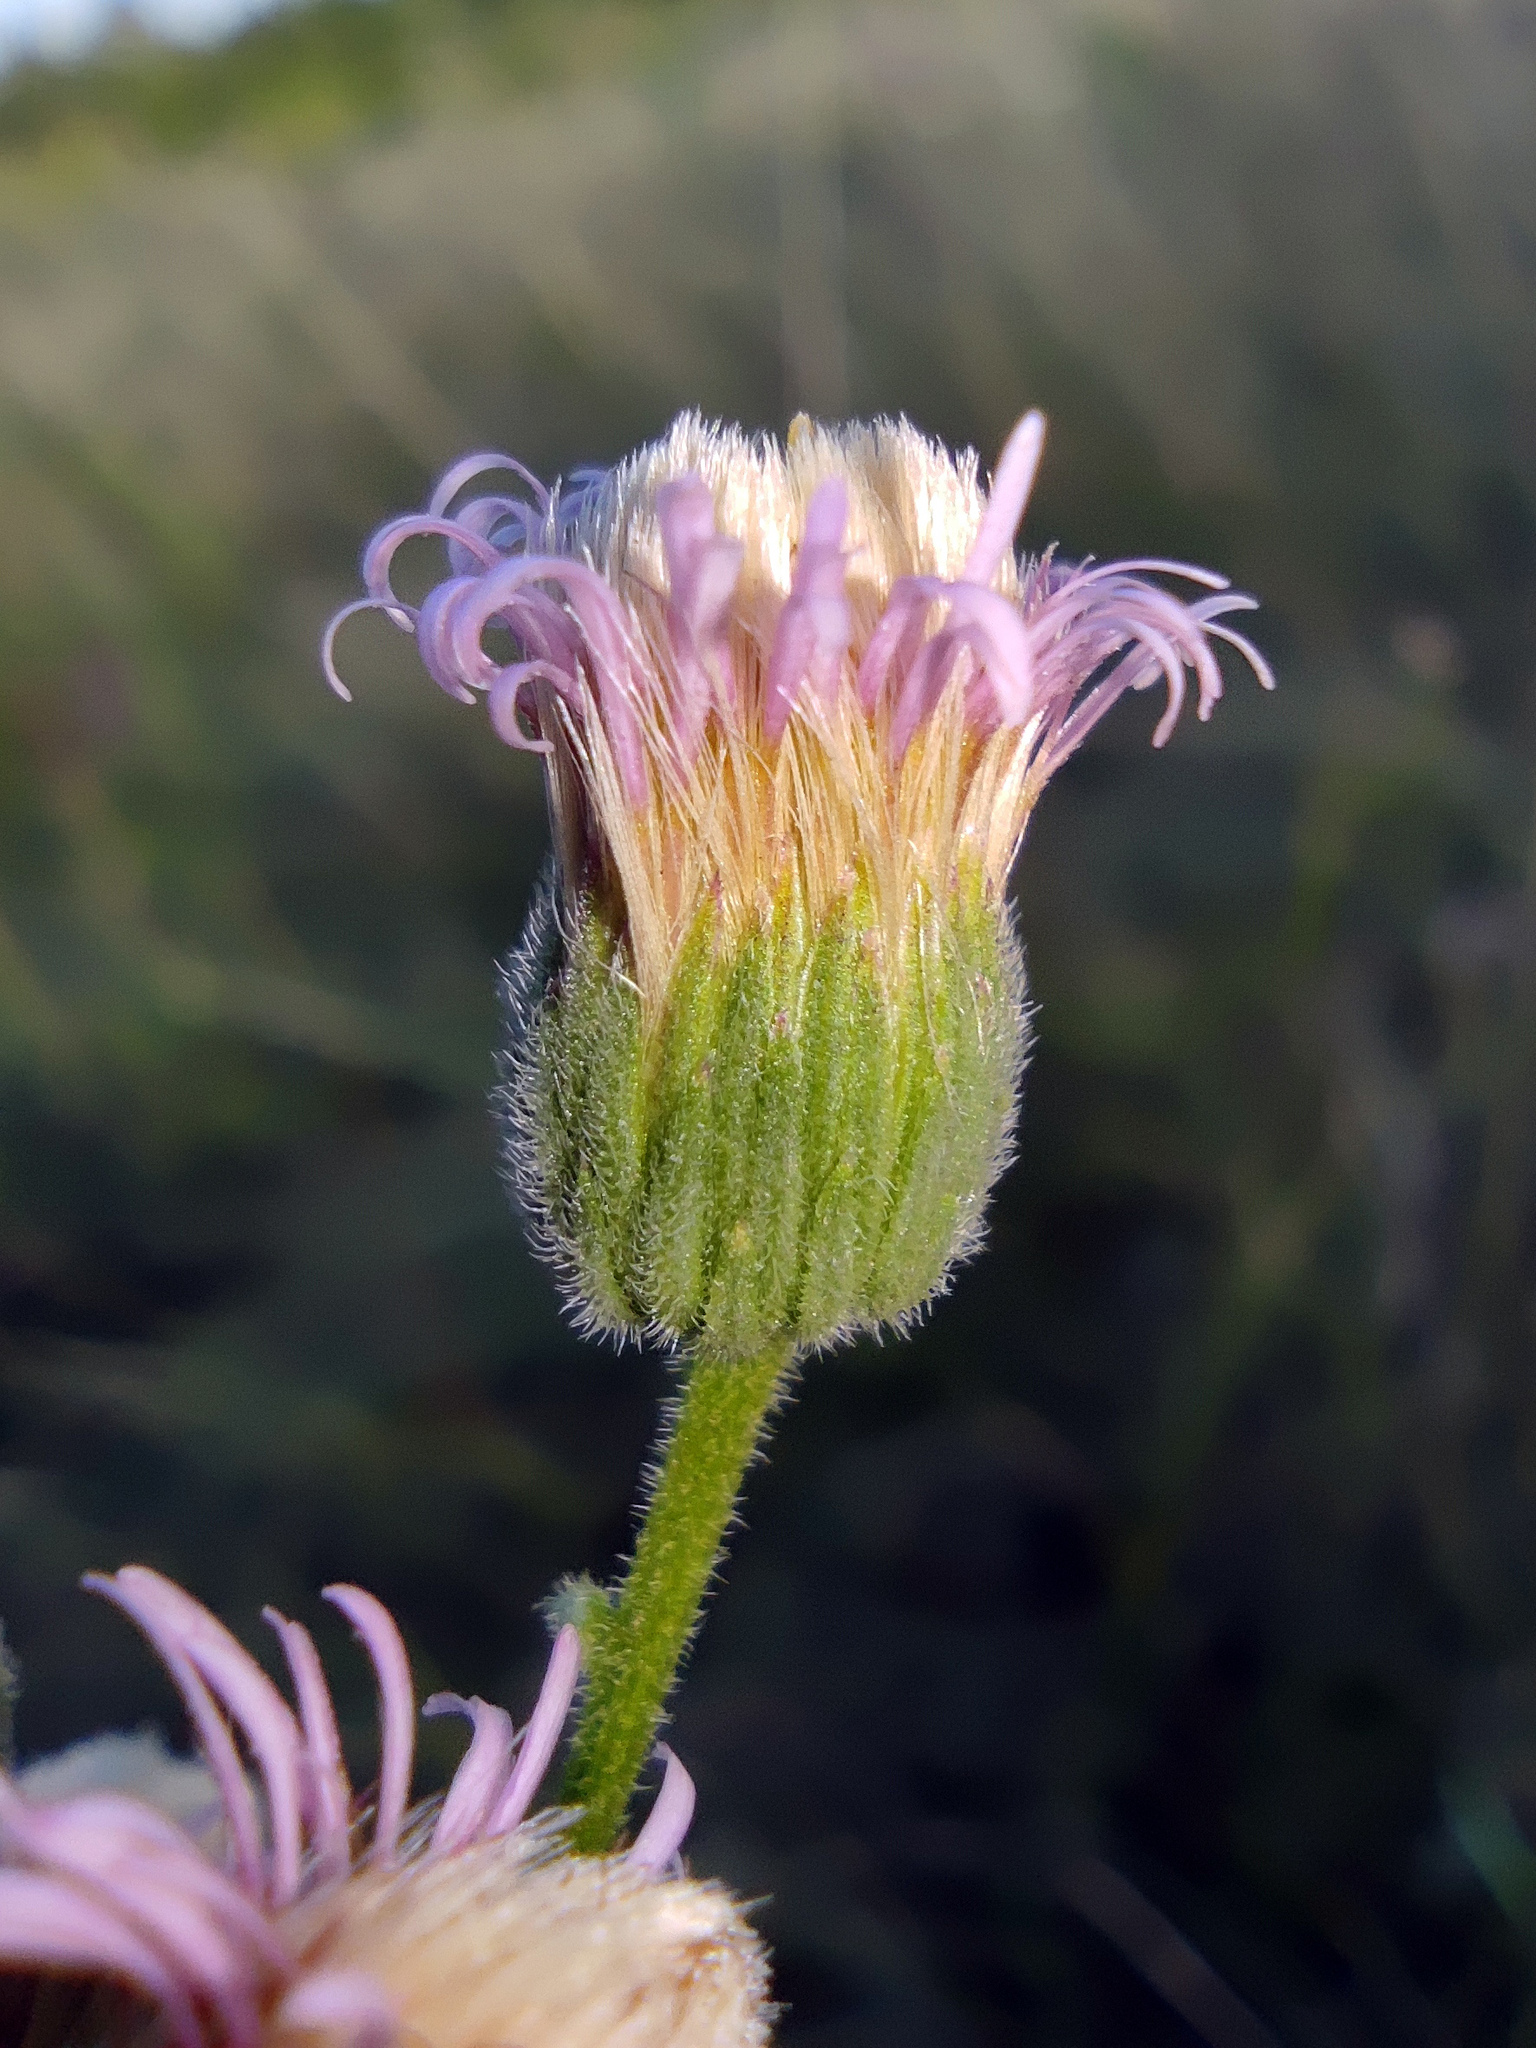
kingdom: Plantae
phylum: Tracheophyta
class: Magnoliopsida
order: Asterales
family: Asteraceae
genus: Erigeron
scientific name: Erigeron acris
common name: Blue fleabane
